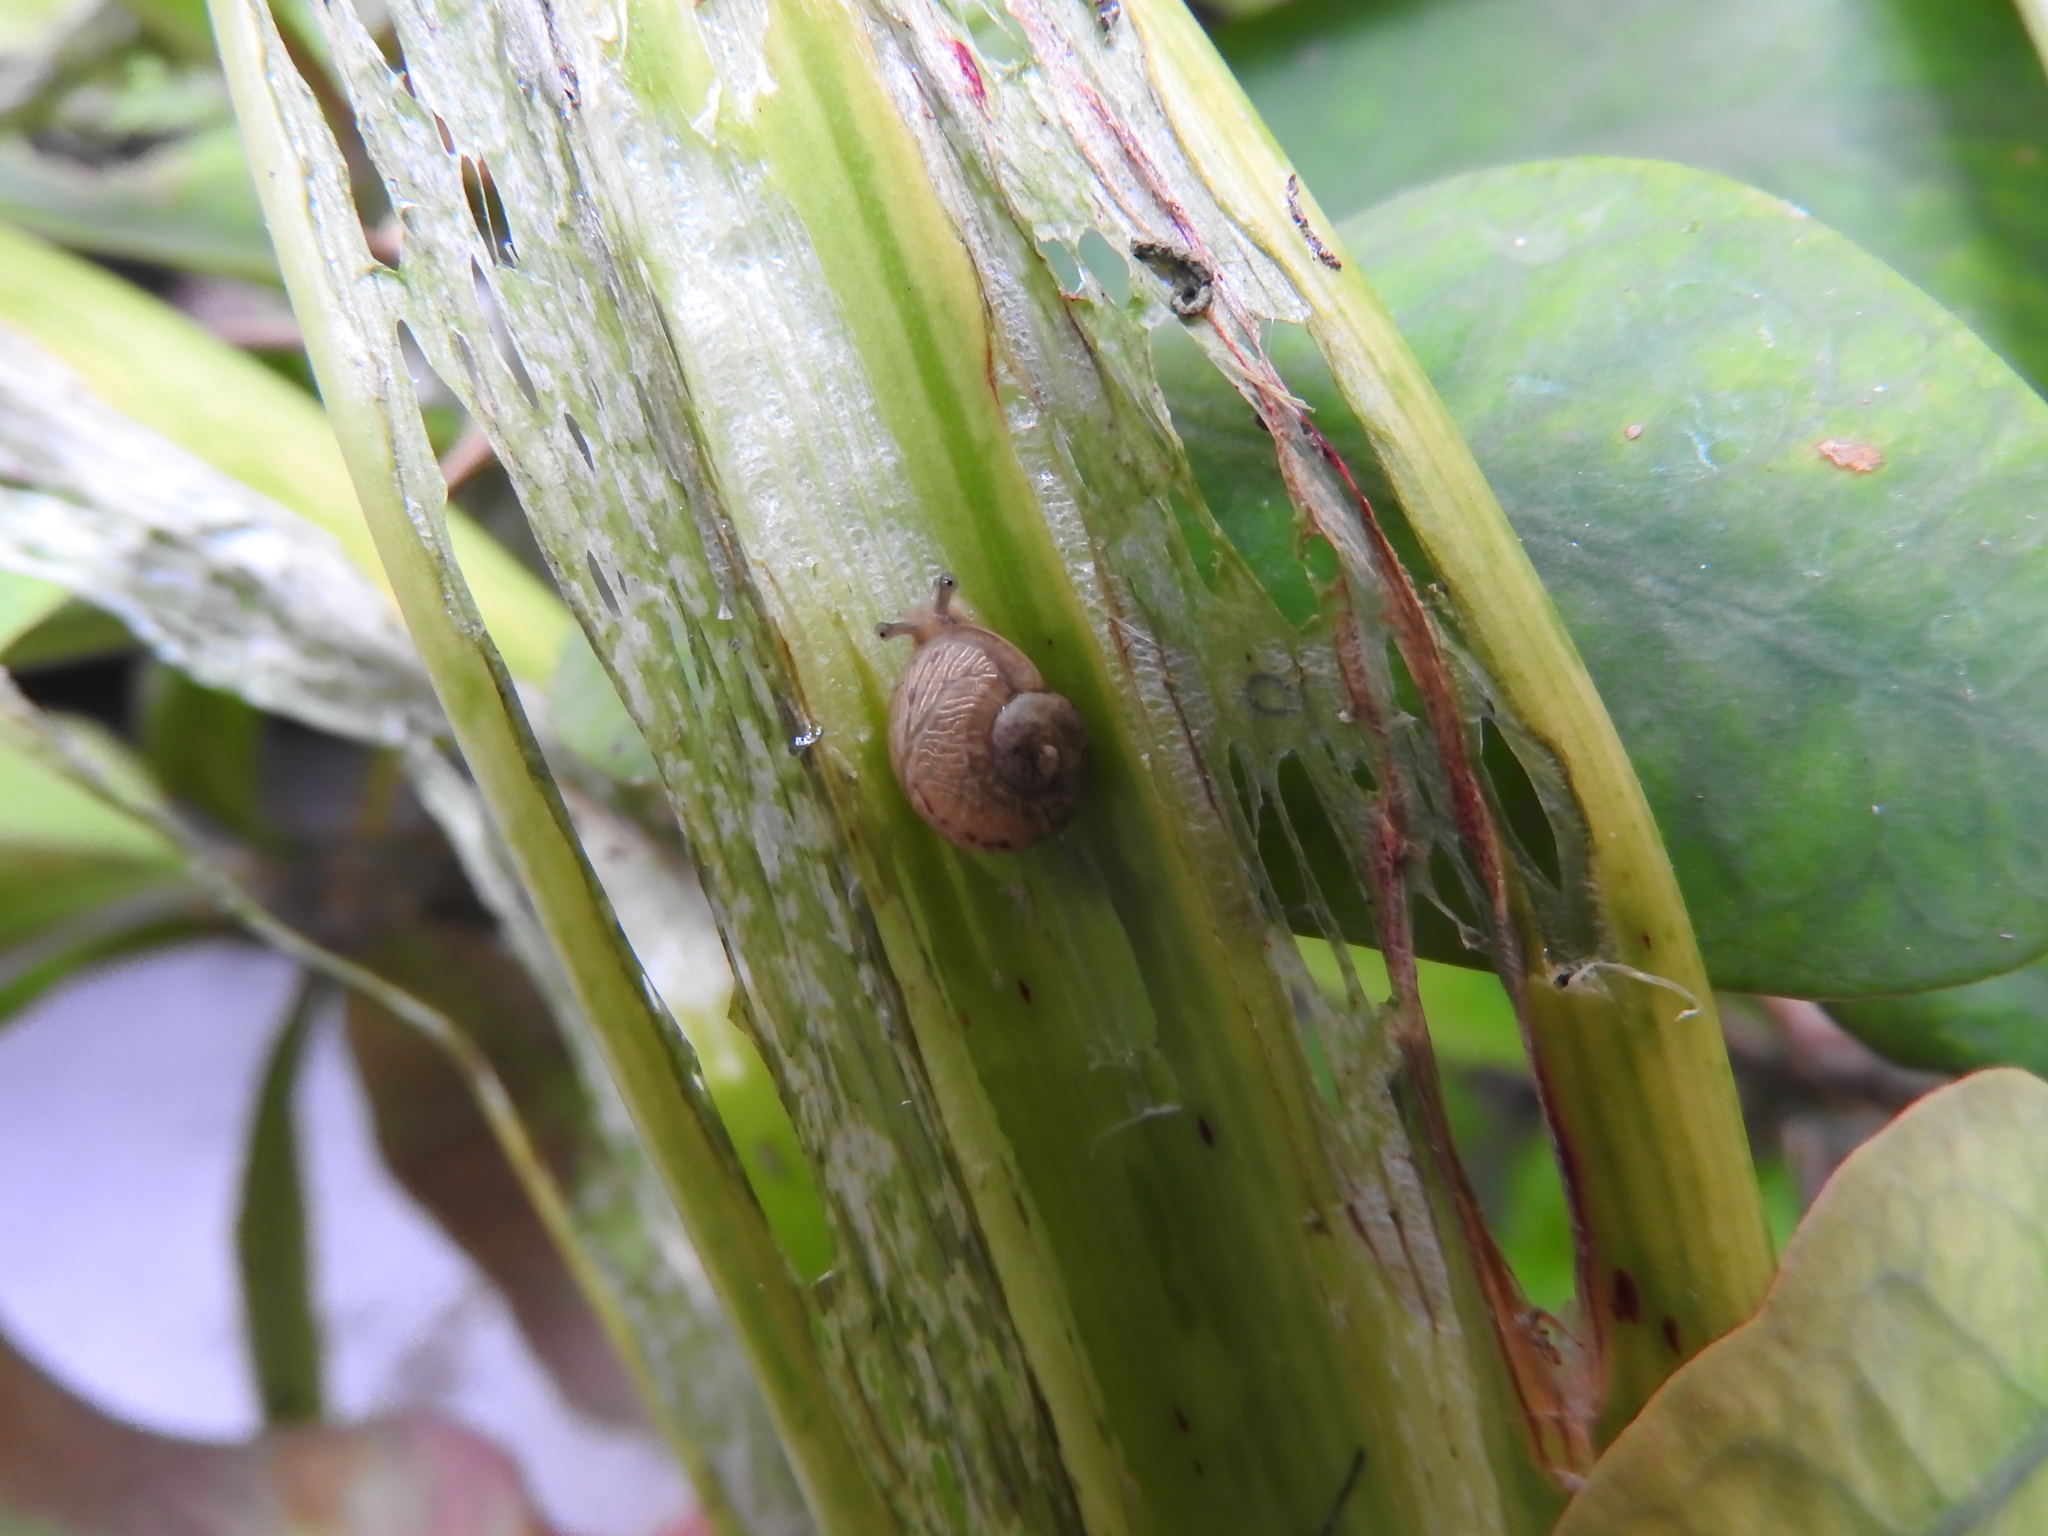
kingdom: Animalia
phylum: Mollusca
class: Gastropoda
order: Stylommatophora
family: Helicidae
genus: Cornu
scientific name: Cornu aspersum
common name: Brown garden snail
